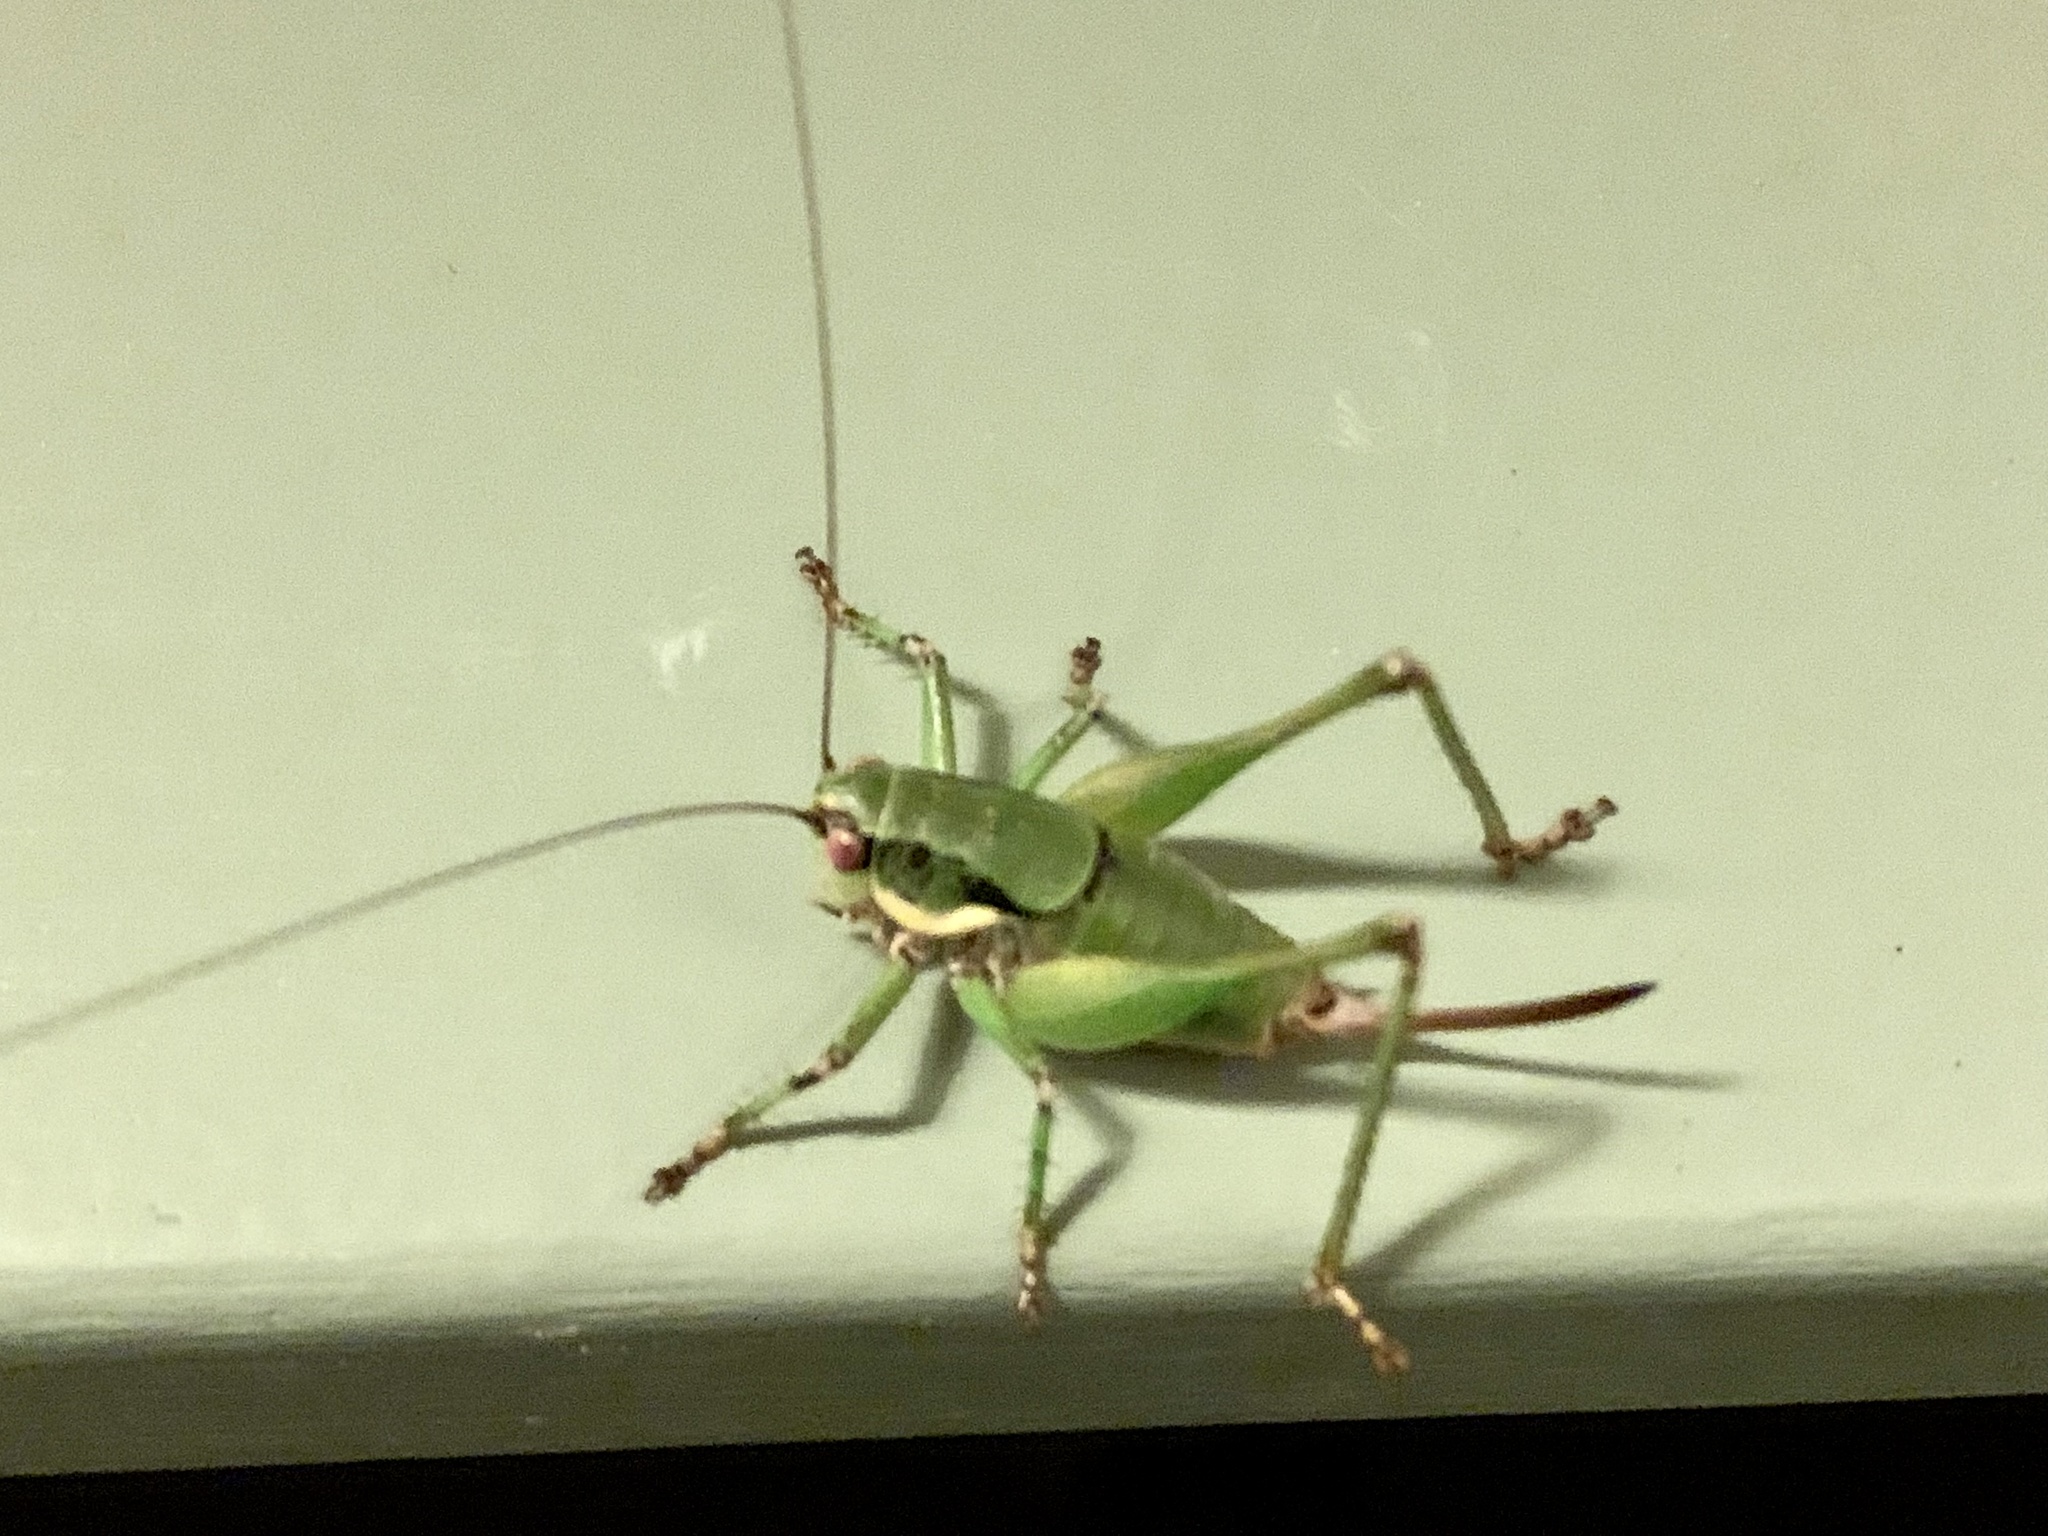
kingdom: Animalia
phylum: Arthropoda
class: Insecta
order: Orthoptera
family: Tettigoniidae
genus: Eupholidoptera
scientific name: Eupholidoptera kykladica
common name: Cyclades marbled bush-cricket
